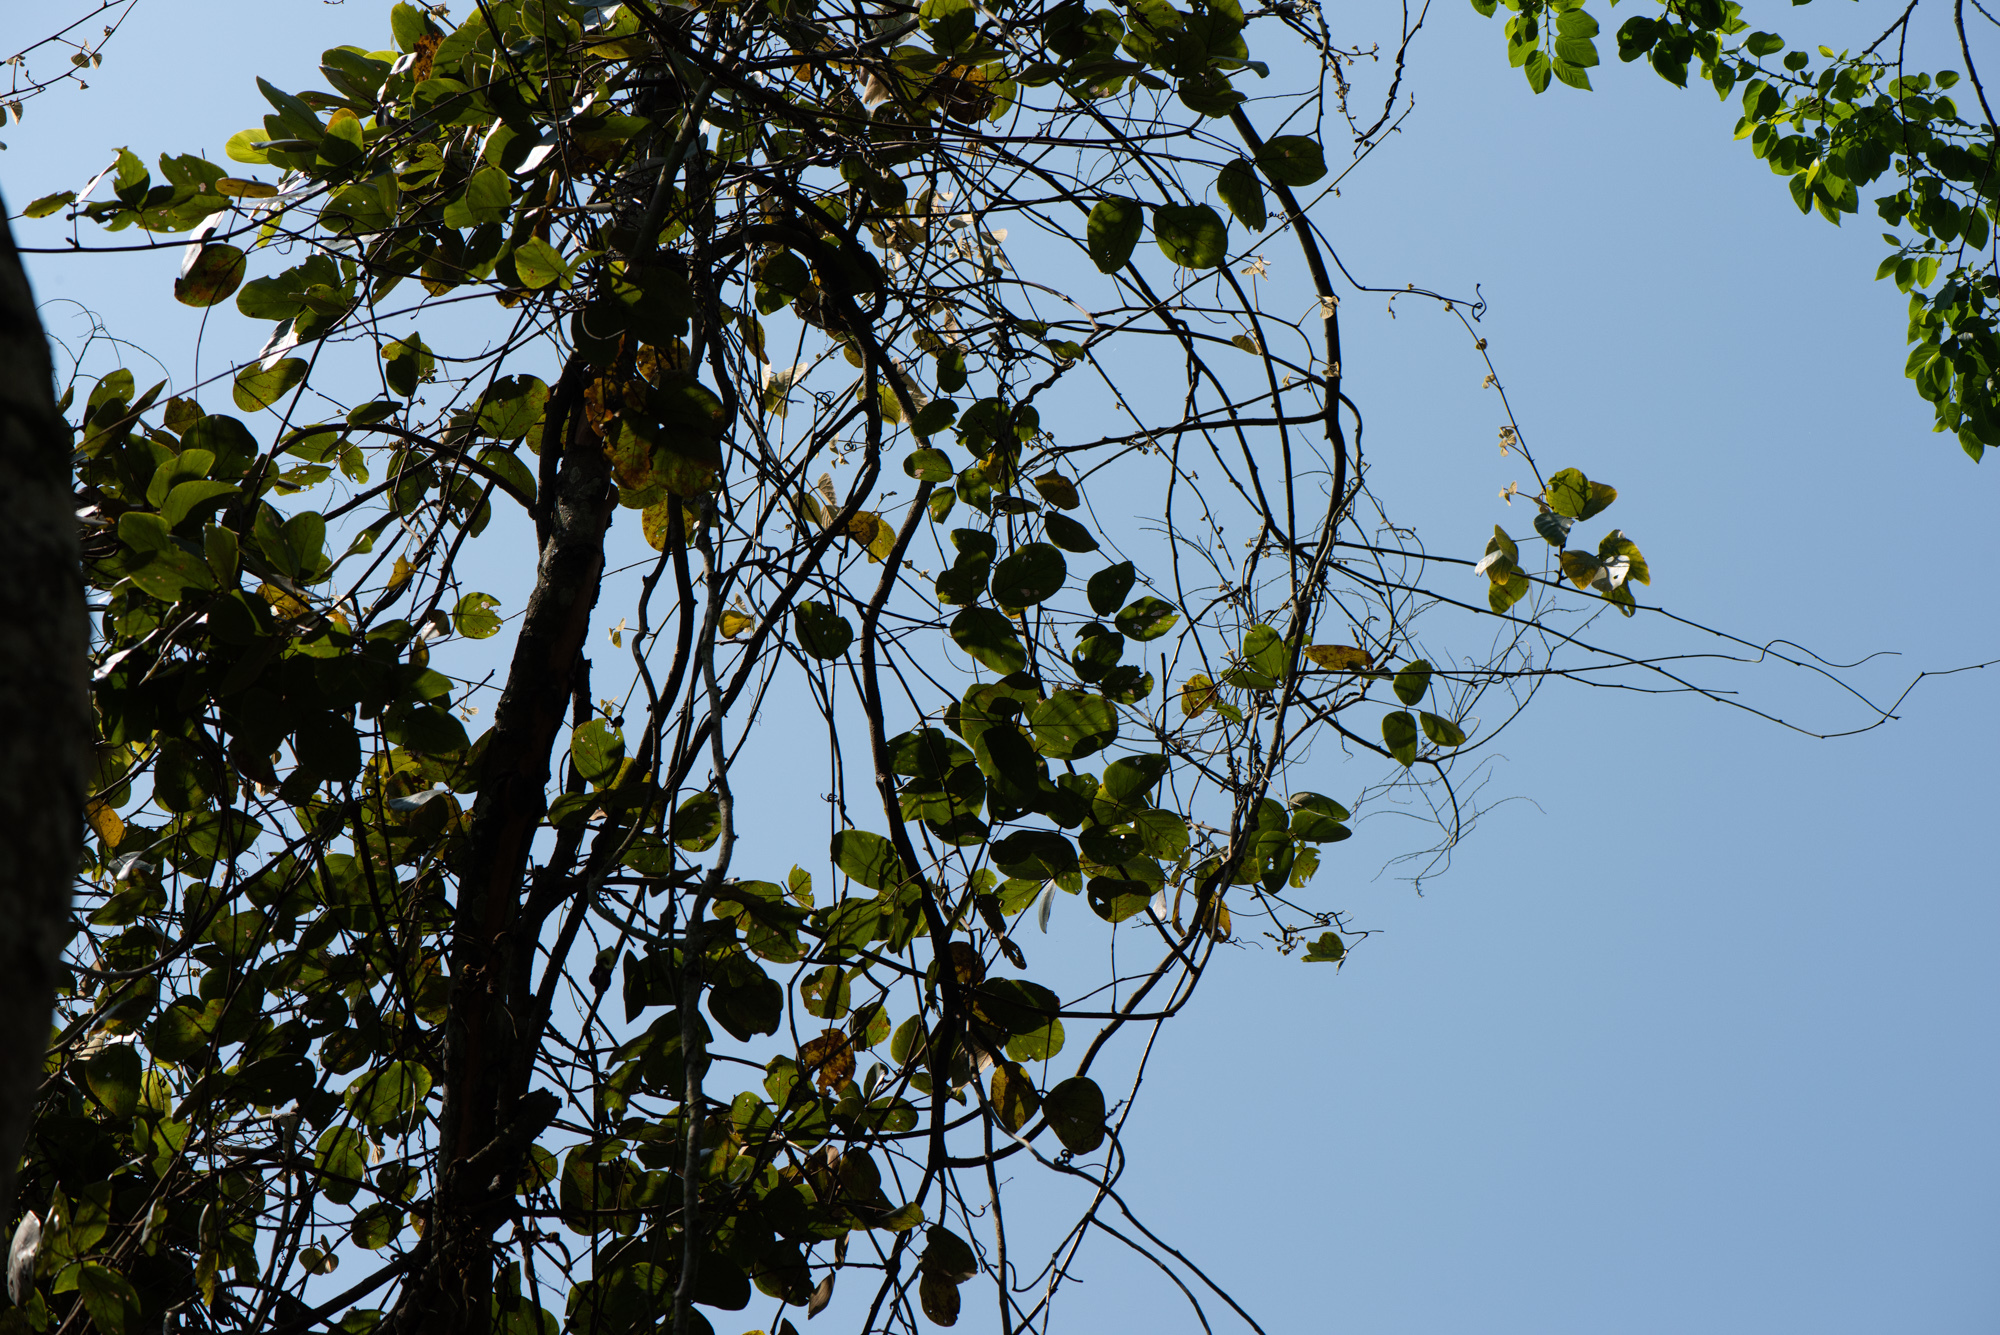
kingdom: Plantae
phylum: Tracheophyta
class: Magnoliopsida
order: Fabales
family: Fabaceae
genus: Mucuna
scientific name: Mucuna macrocarpa
